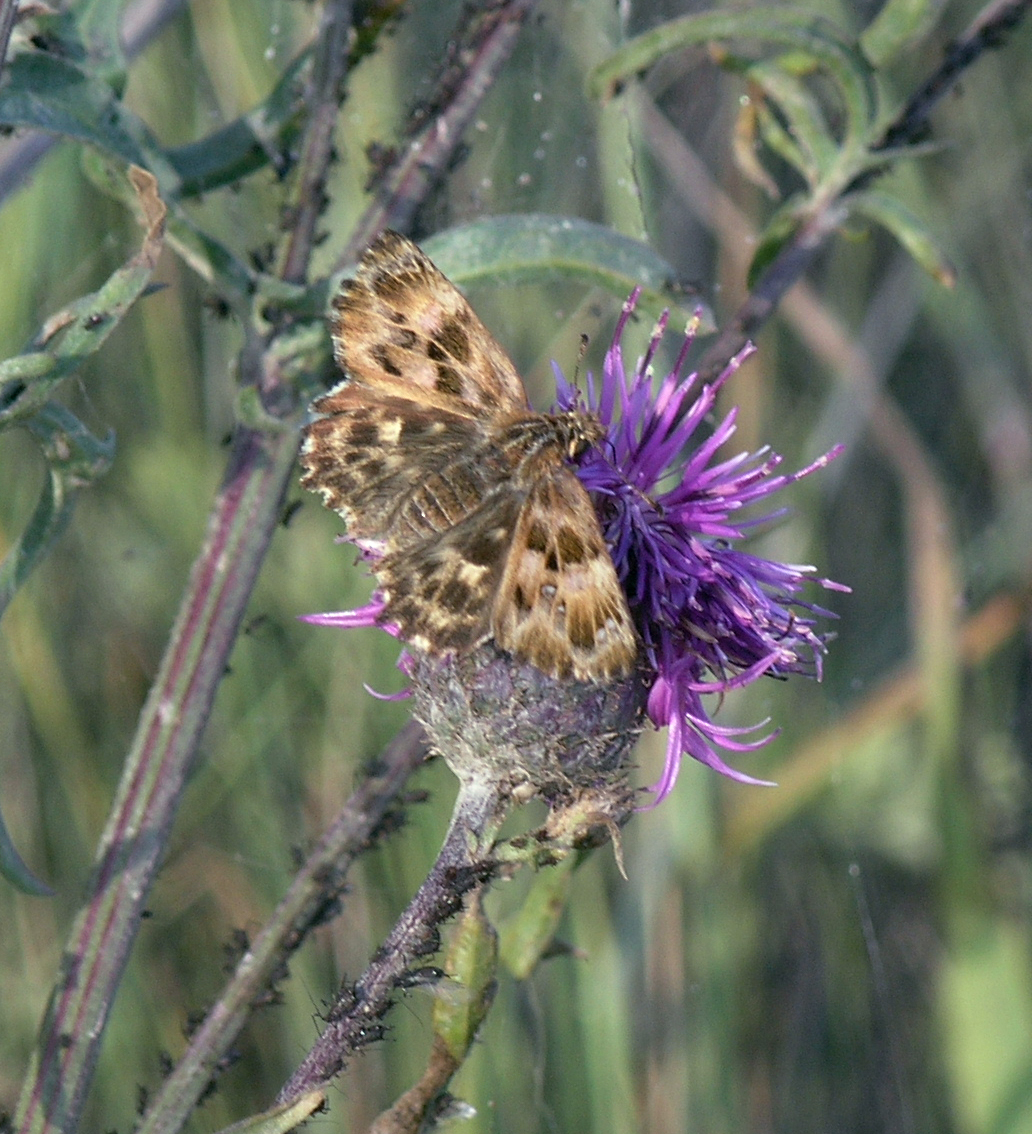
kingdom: Animalia
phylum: Arthropoda
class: Insecta
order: Lepidoptera
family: Hesperiidae
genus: Carcharodus
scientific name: Carcharodus alceae
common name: Mallow skipper
